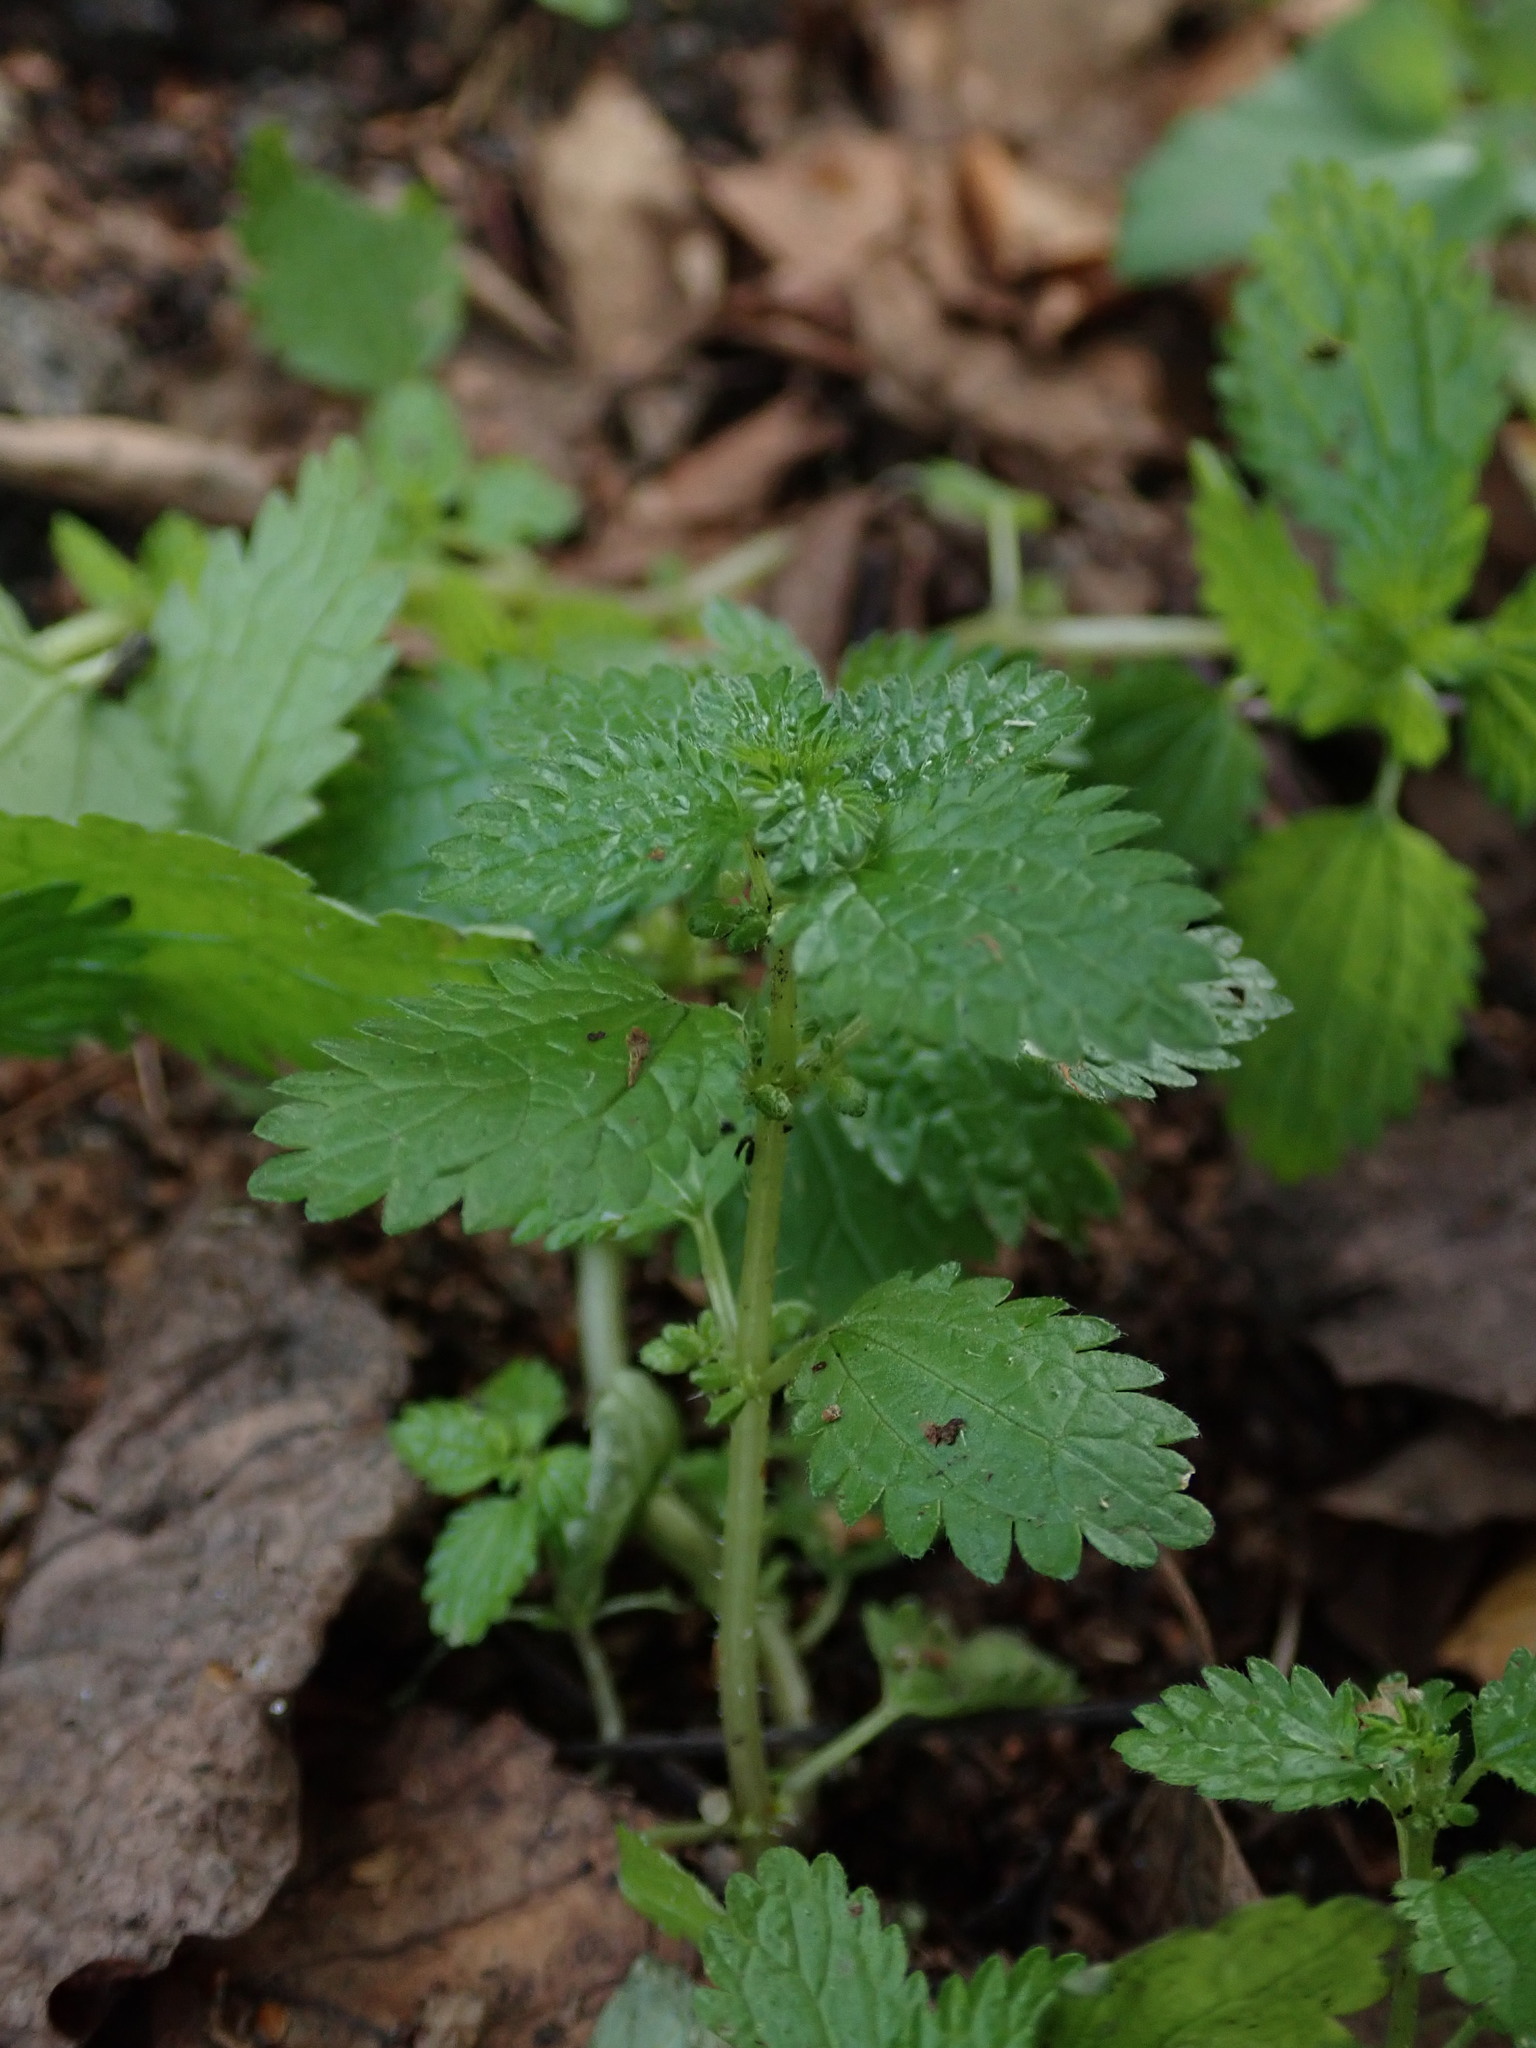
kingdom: Plantae
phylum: Tracheophyta
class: Magnoliopsida
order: Rosales
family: Urticaceae
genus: Urtica
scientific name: Urtica urens
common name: Dwarf nettle
